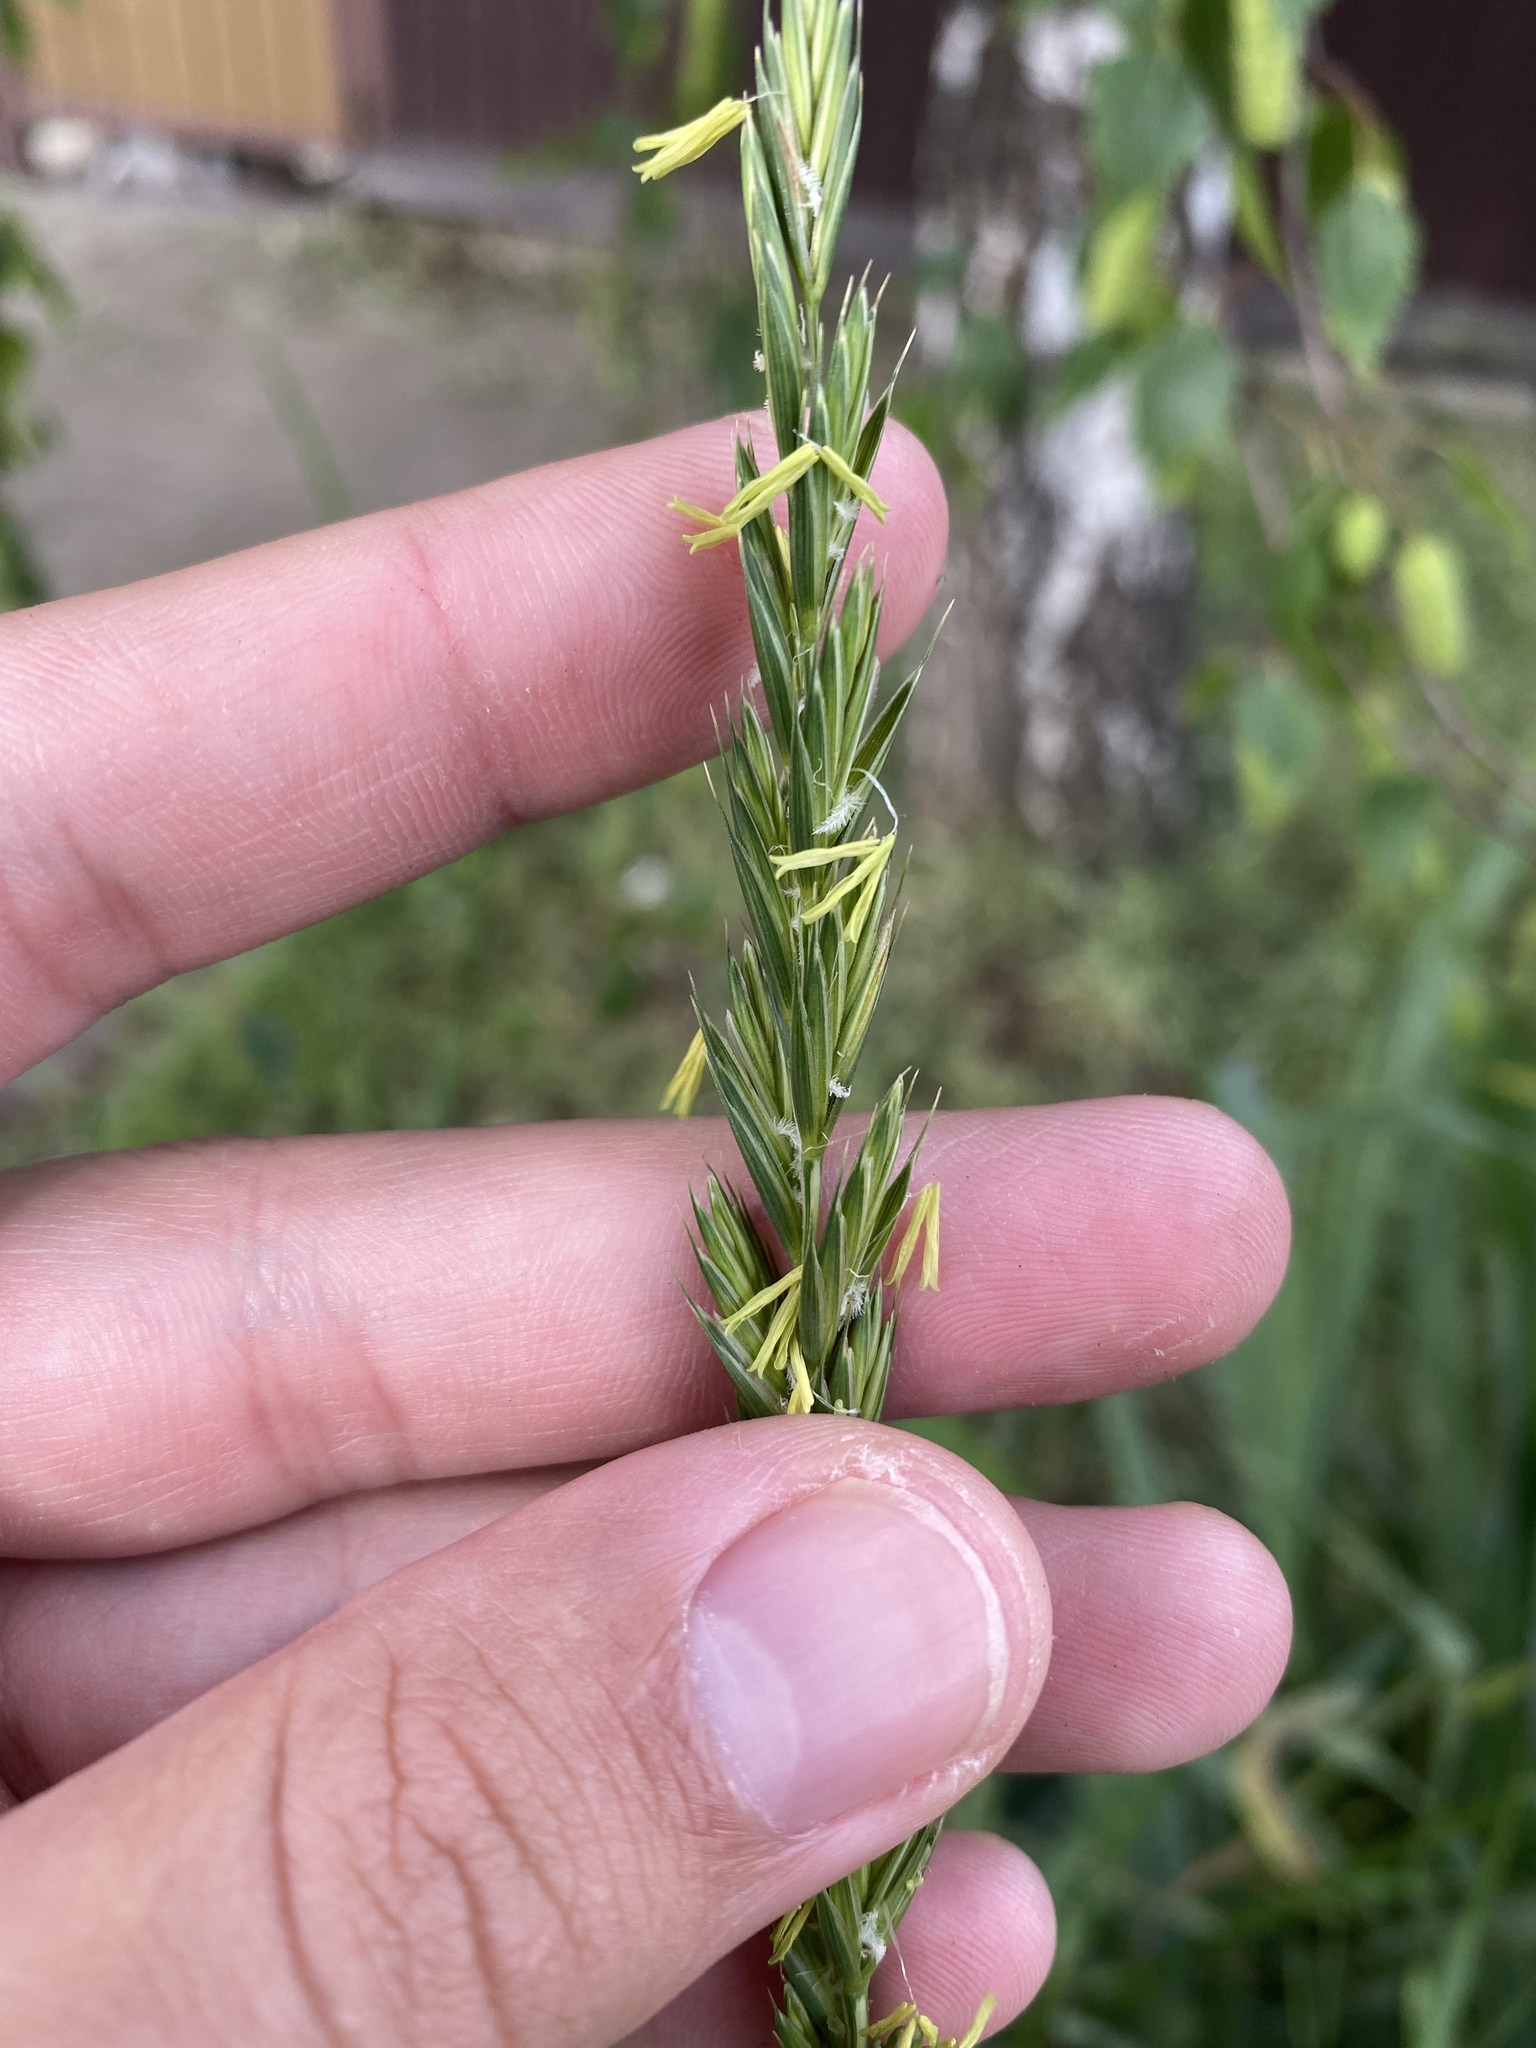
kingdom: Plantae
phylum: Tracheophyta
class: Liliopsida
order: Poales
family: Poaceae
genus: Elymus
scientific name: Elymus repens
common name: Quackgrass
